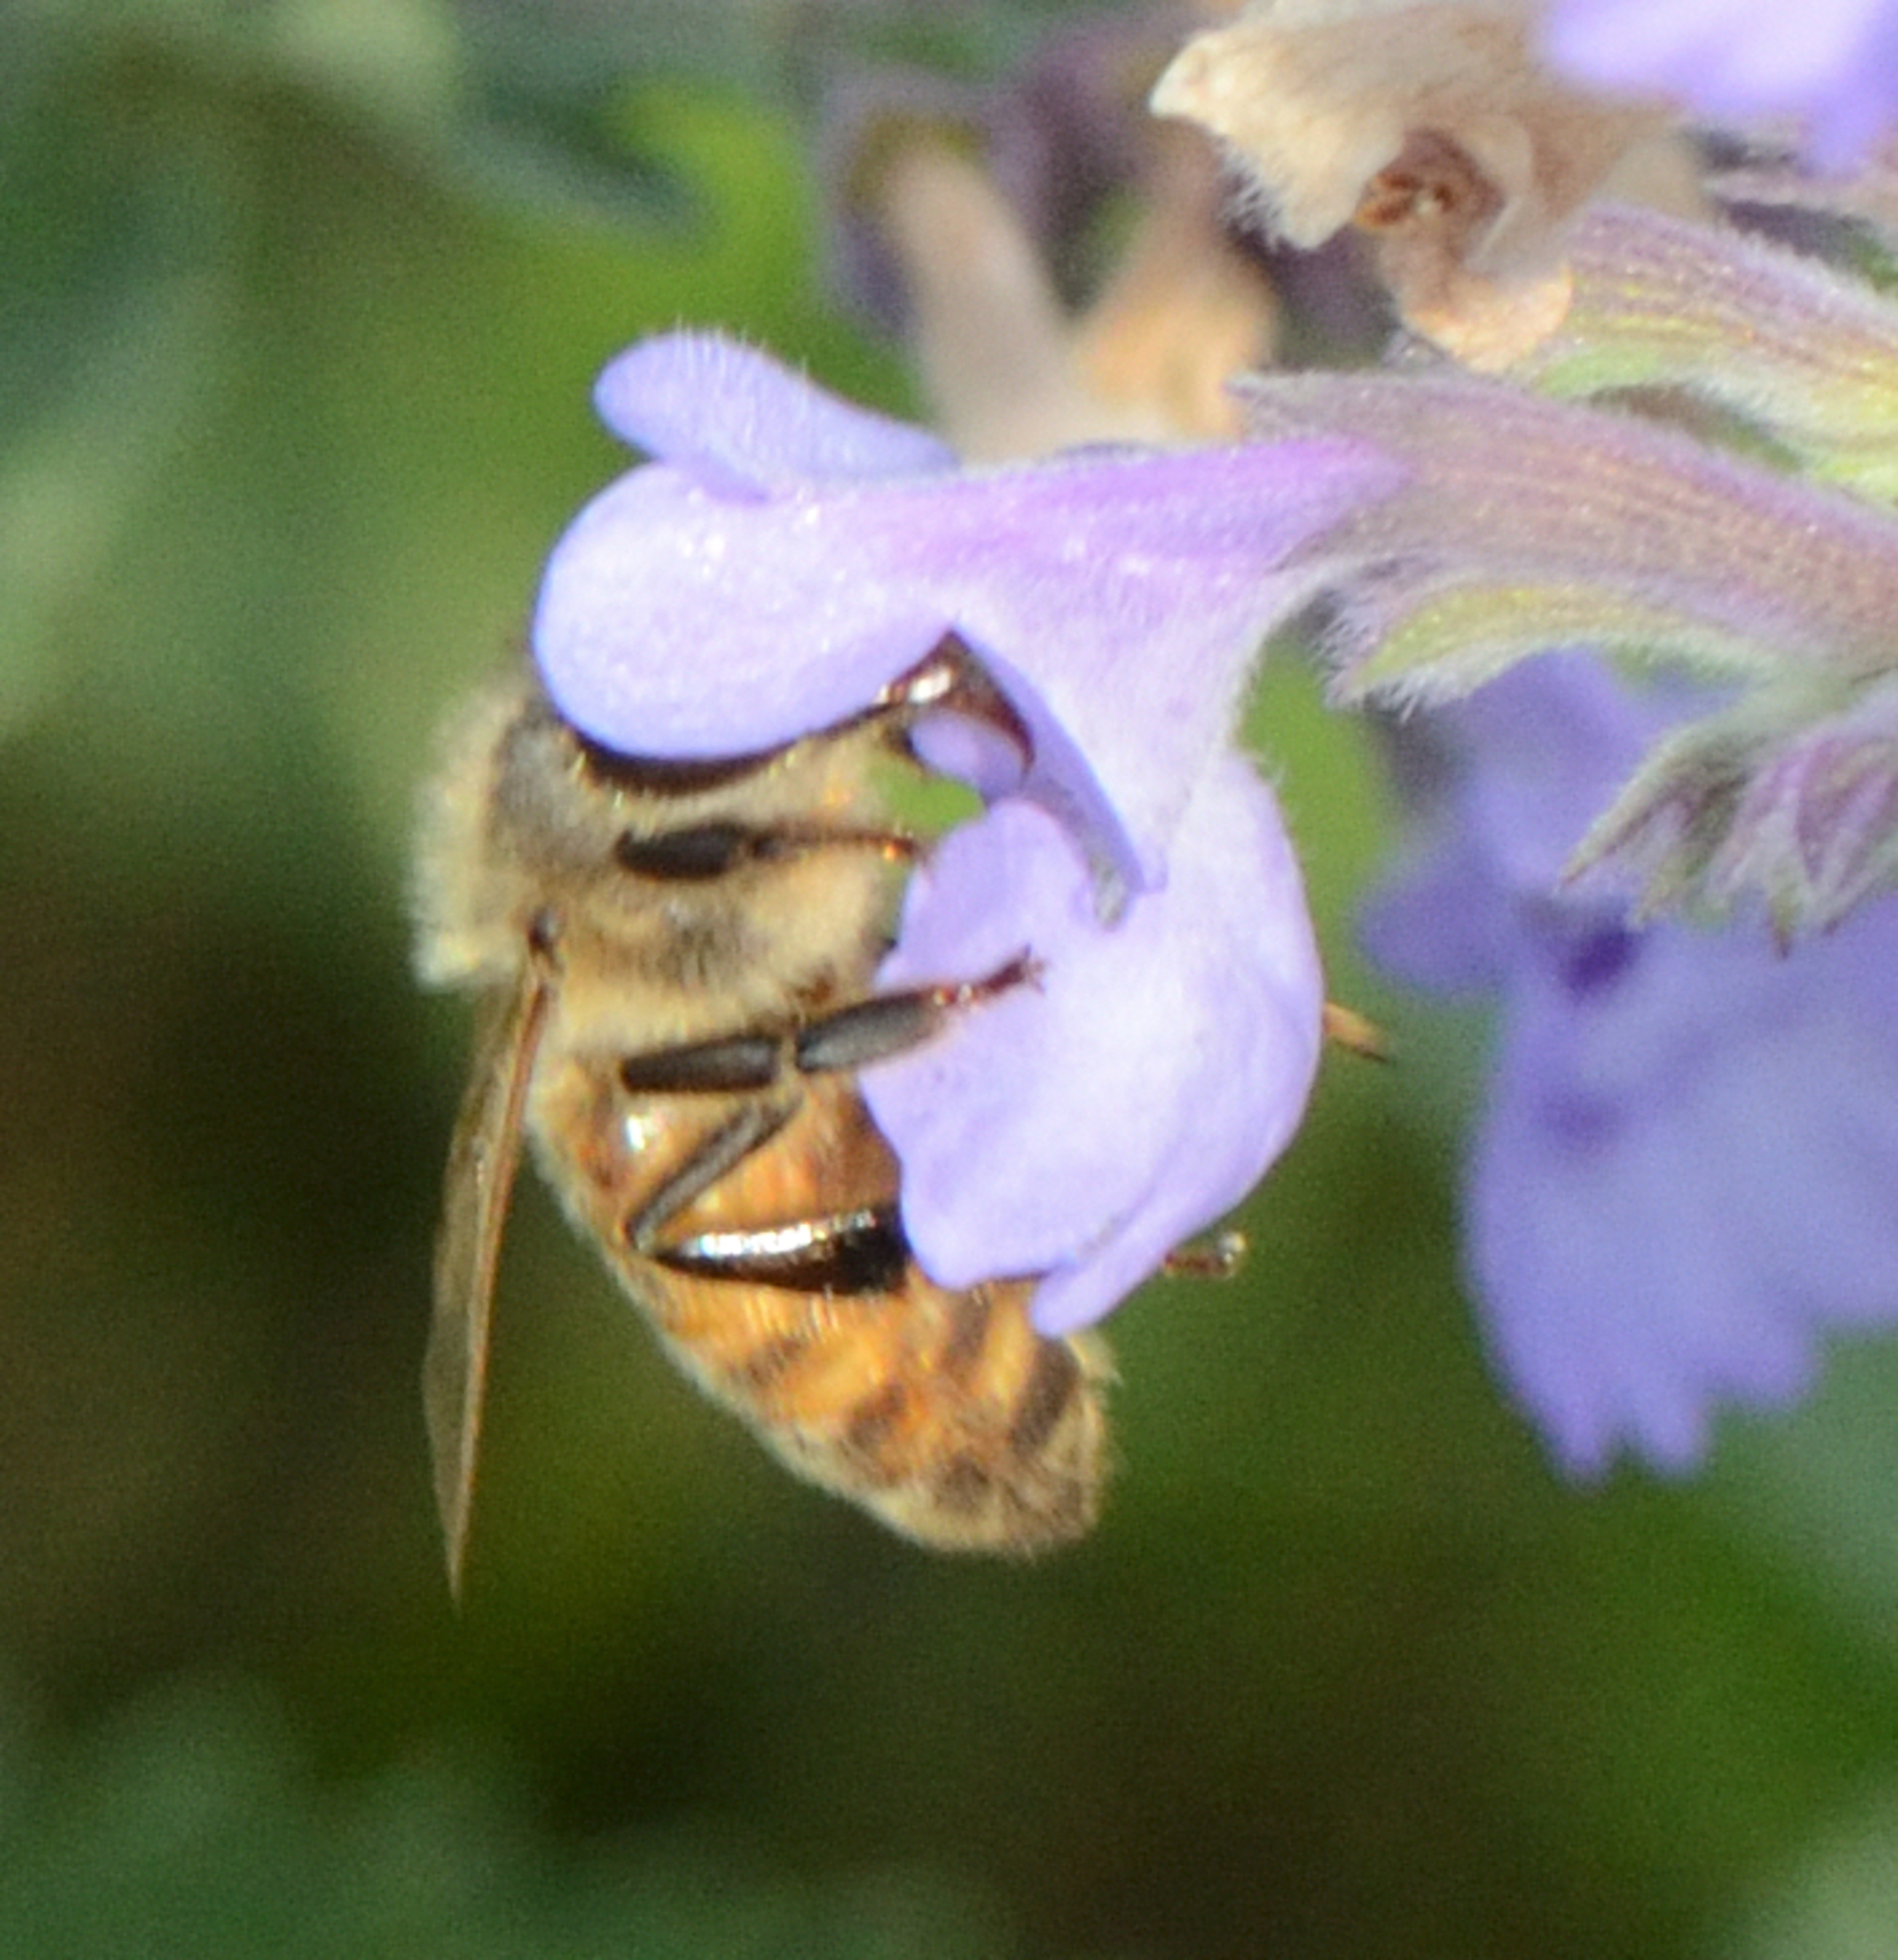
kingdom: Animalia
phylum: Arthropoda
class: Insecta
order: Hymenoptera
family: Apidae
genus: Apis
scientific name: Apis mellifera
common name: Honey bee
